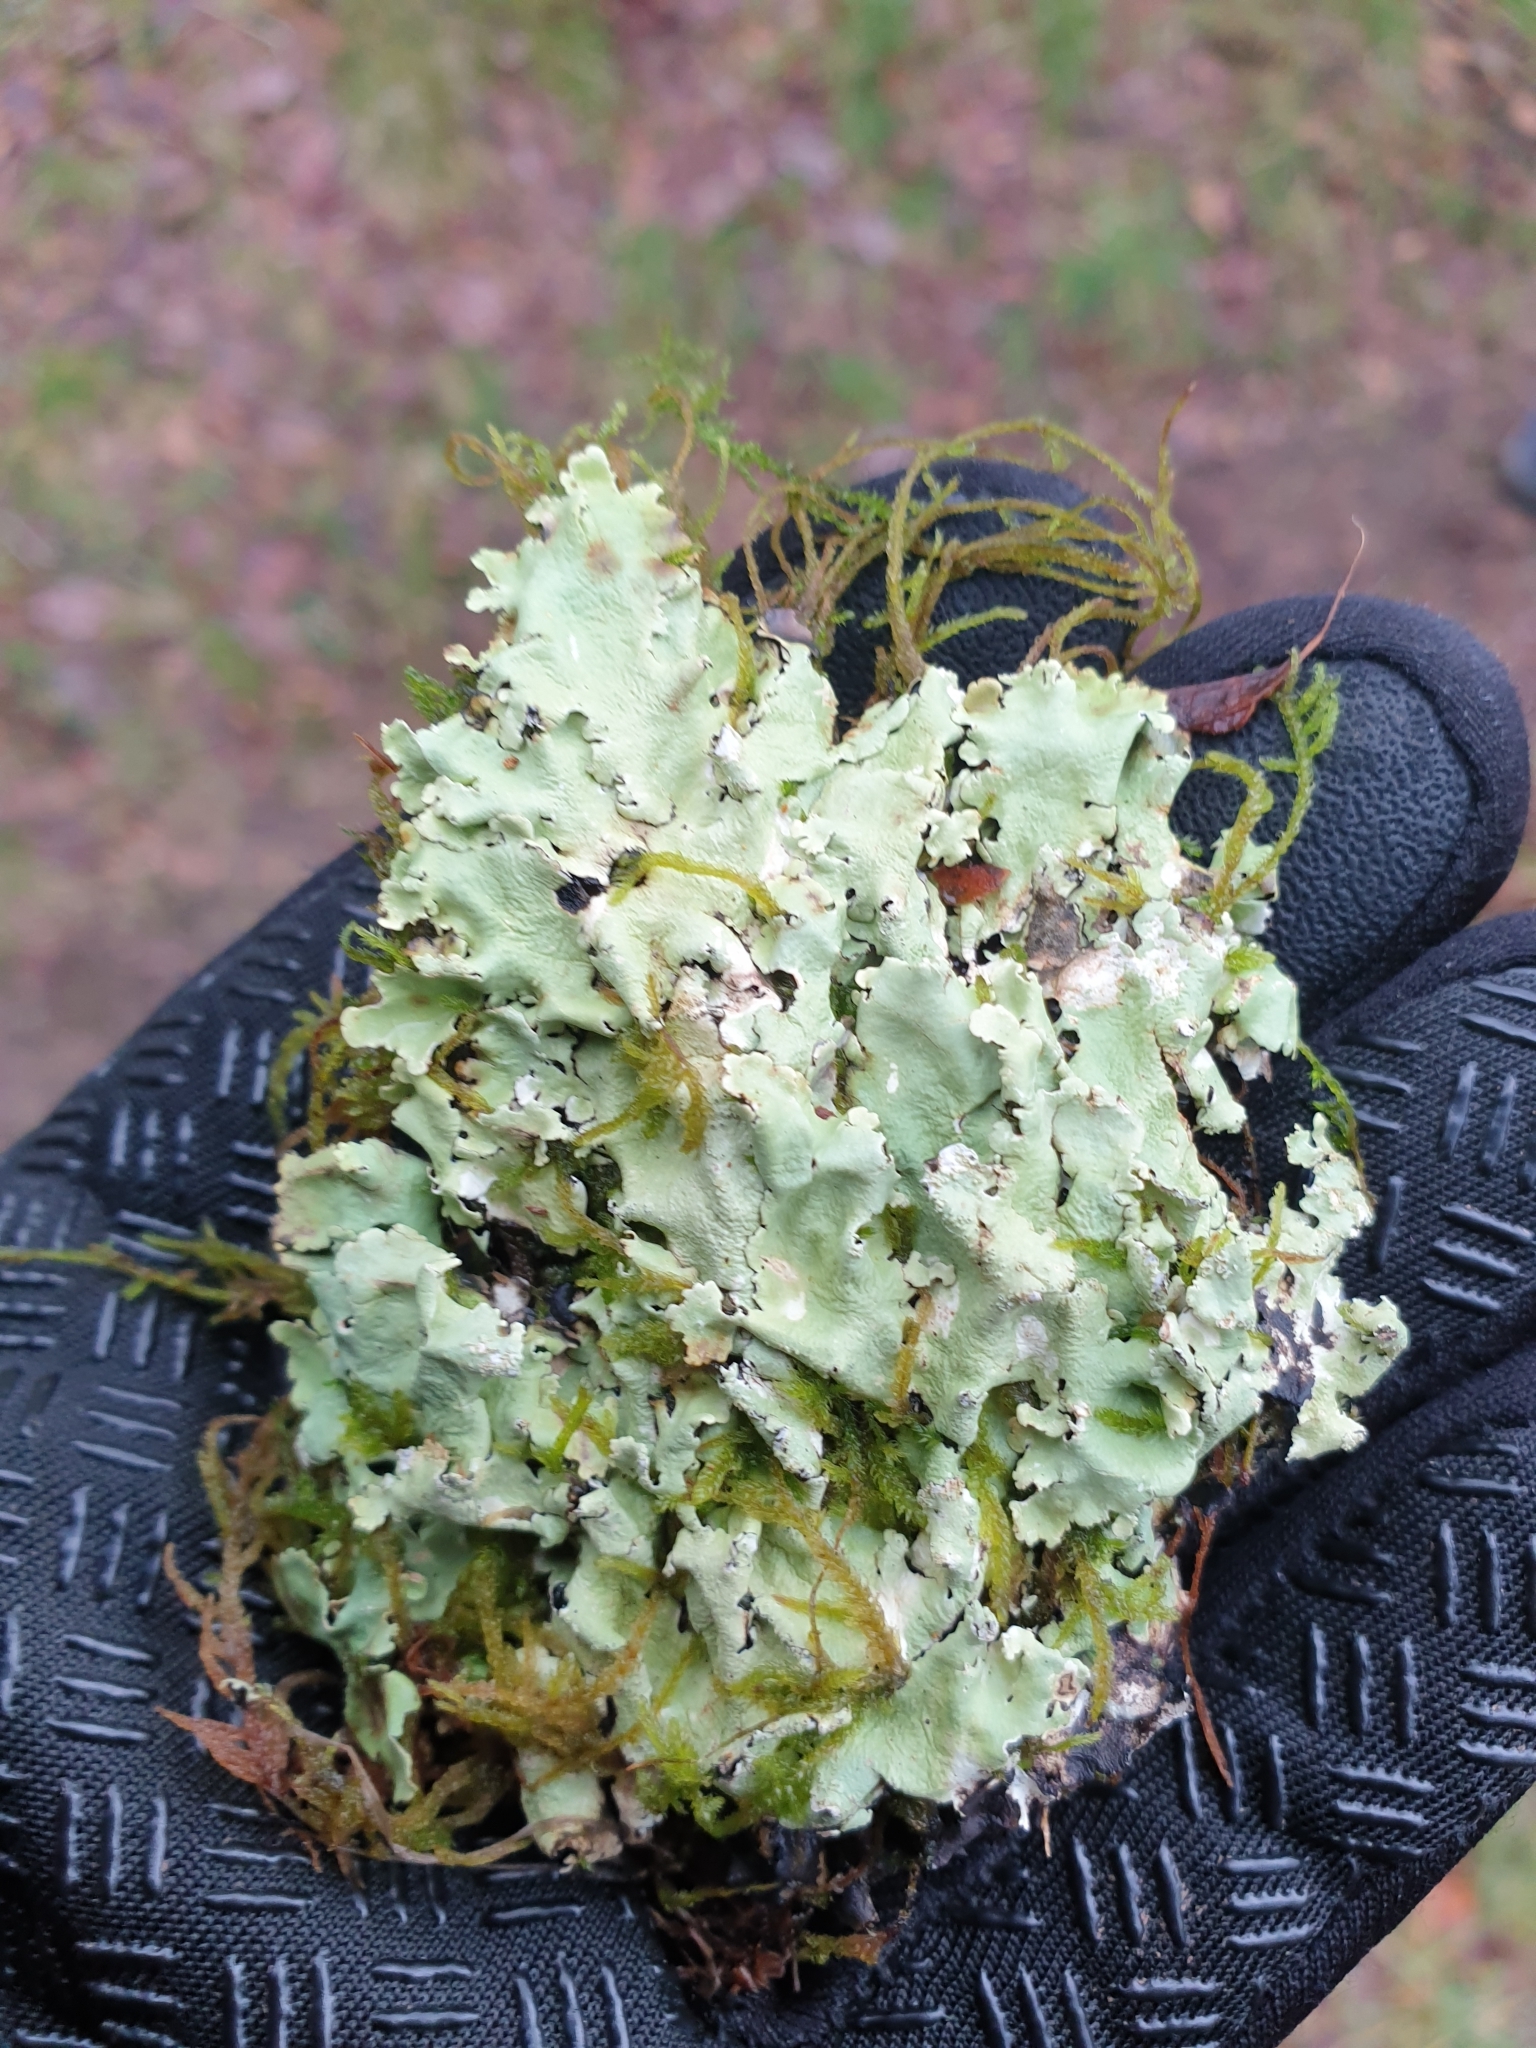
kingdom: Fungi
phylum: Ascomycota
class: Lecanoromycetes
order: Lecanorales
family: Parmeliaceae
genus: Flavoparmelia
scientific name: Flavoparmelia caperata
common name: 40-mile per hour lichen
